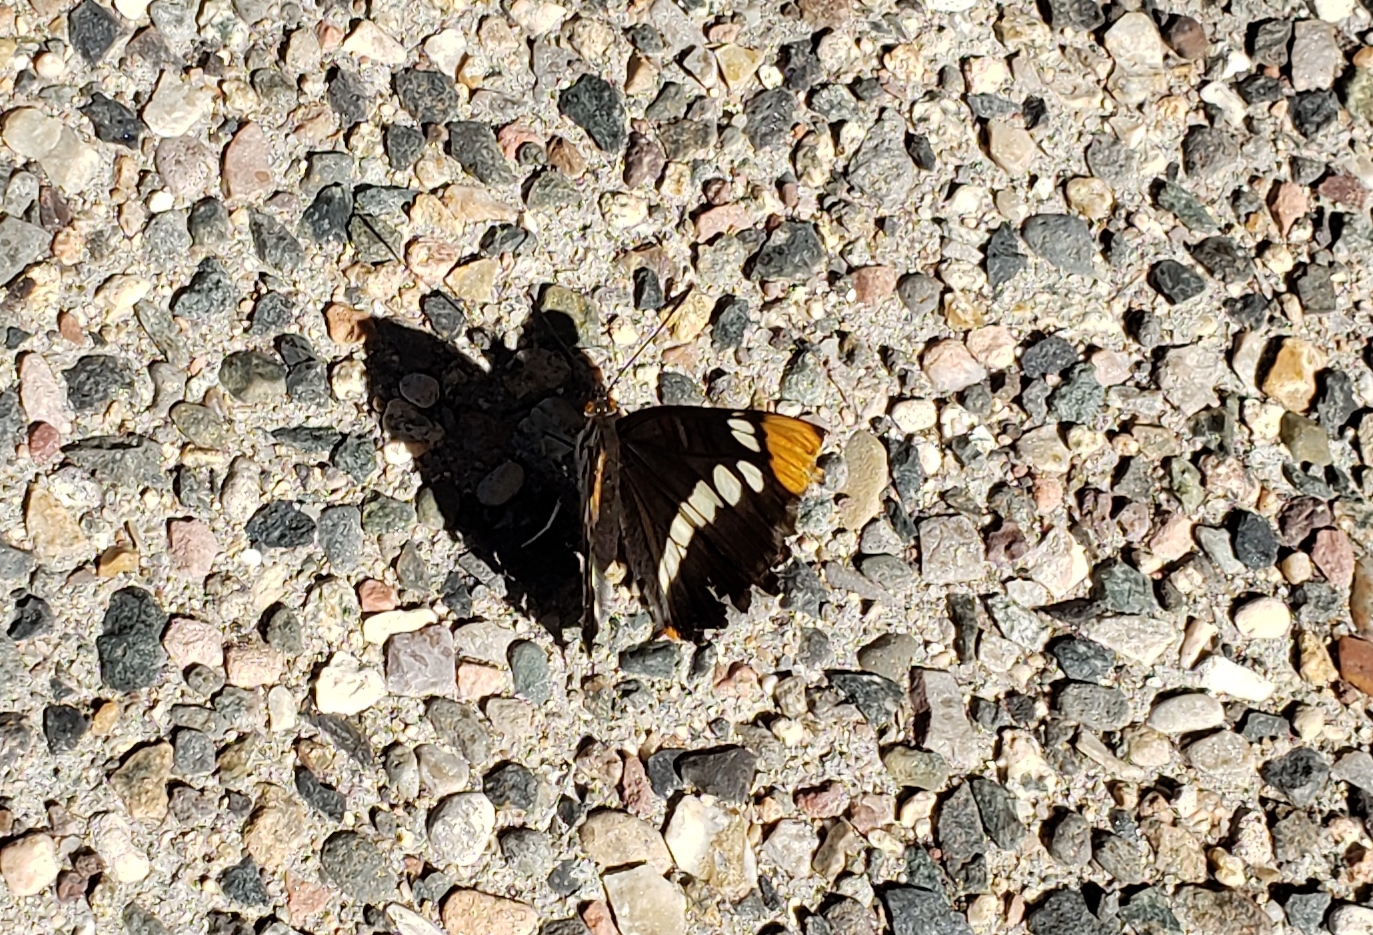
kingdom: Animalia
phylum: Arthropoda
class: Insecta
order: Lepidoptera
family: Nymphalidae
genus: Limenitis
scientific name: Limenitis bredowii
